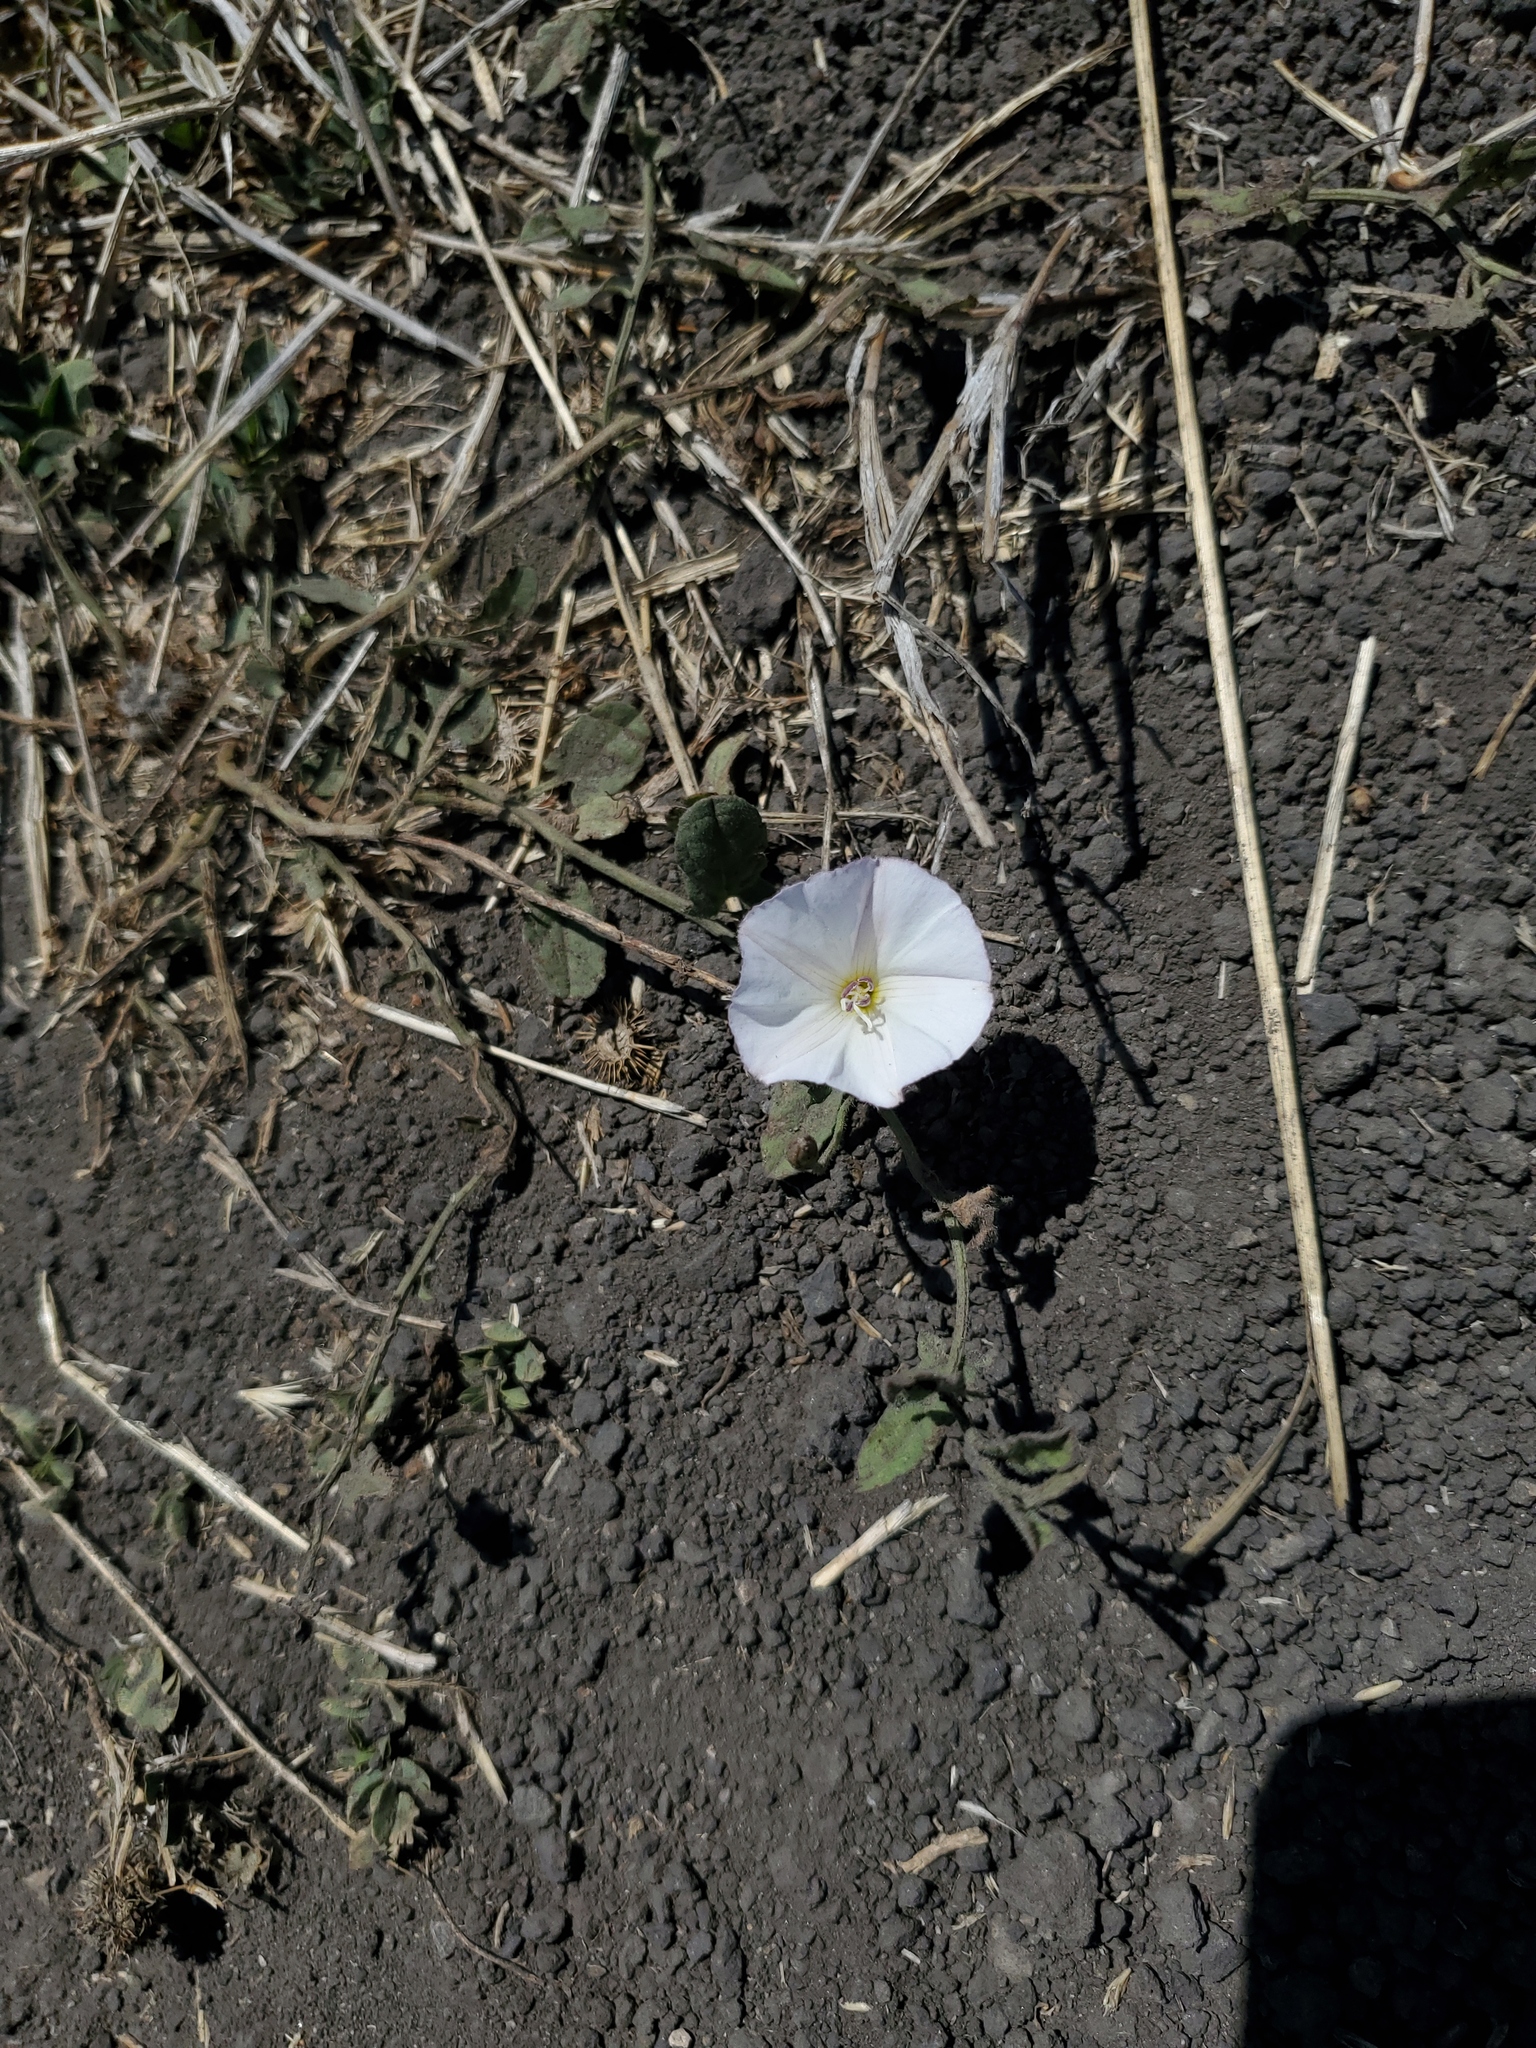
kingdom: Plantae
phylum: Tracheophyta
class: Magnoliopsida
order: Solanales
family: Convolvulaceae
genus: Convolvulus
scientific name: Convolvulus arvensis
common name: Field bindweed
